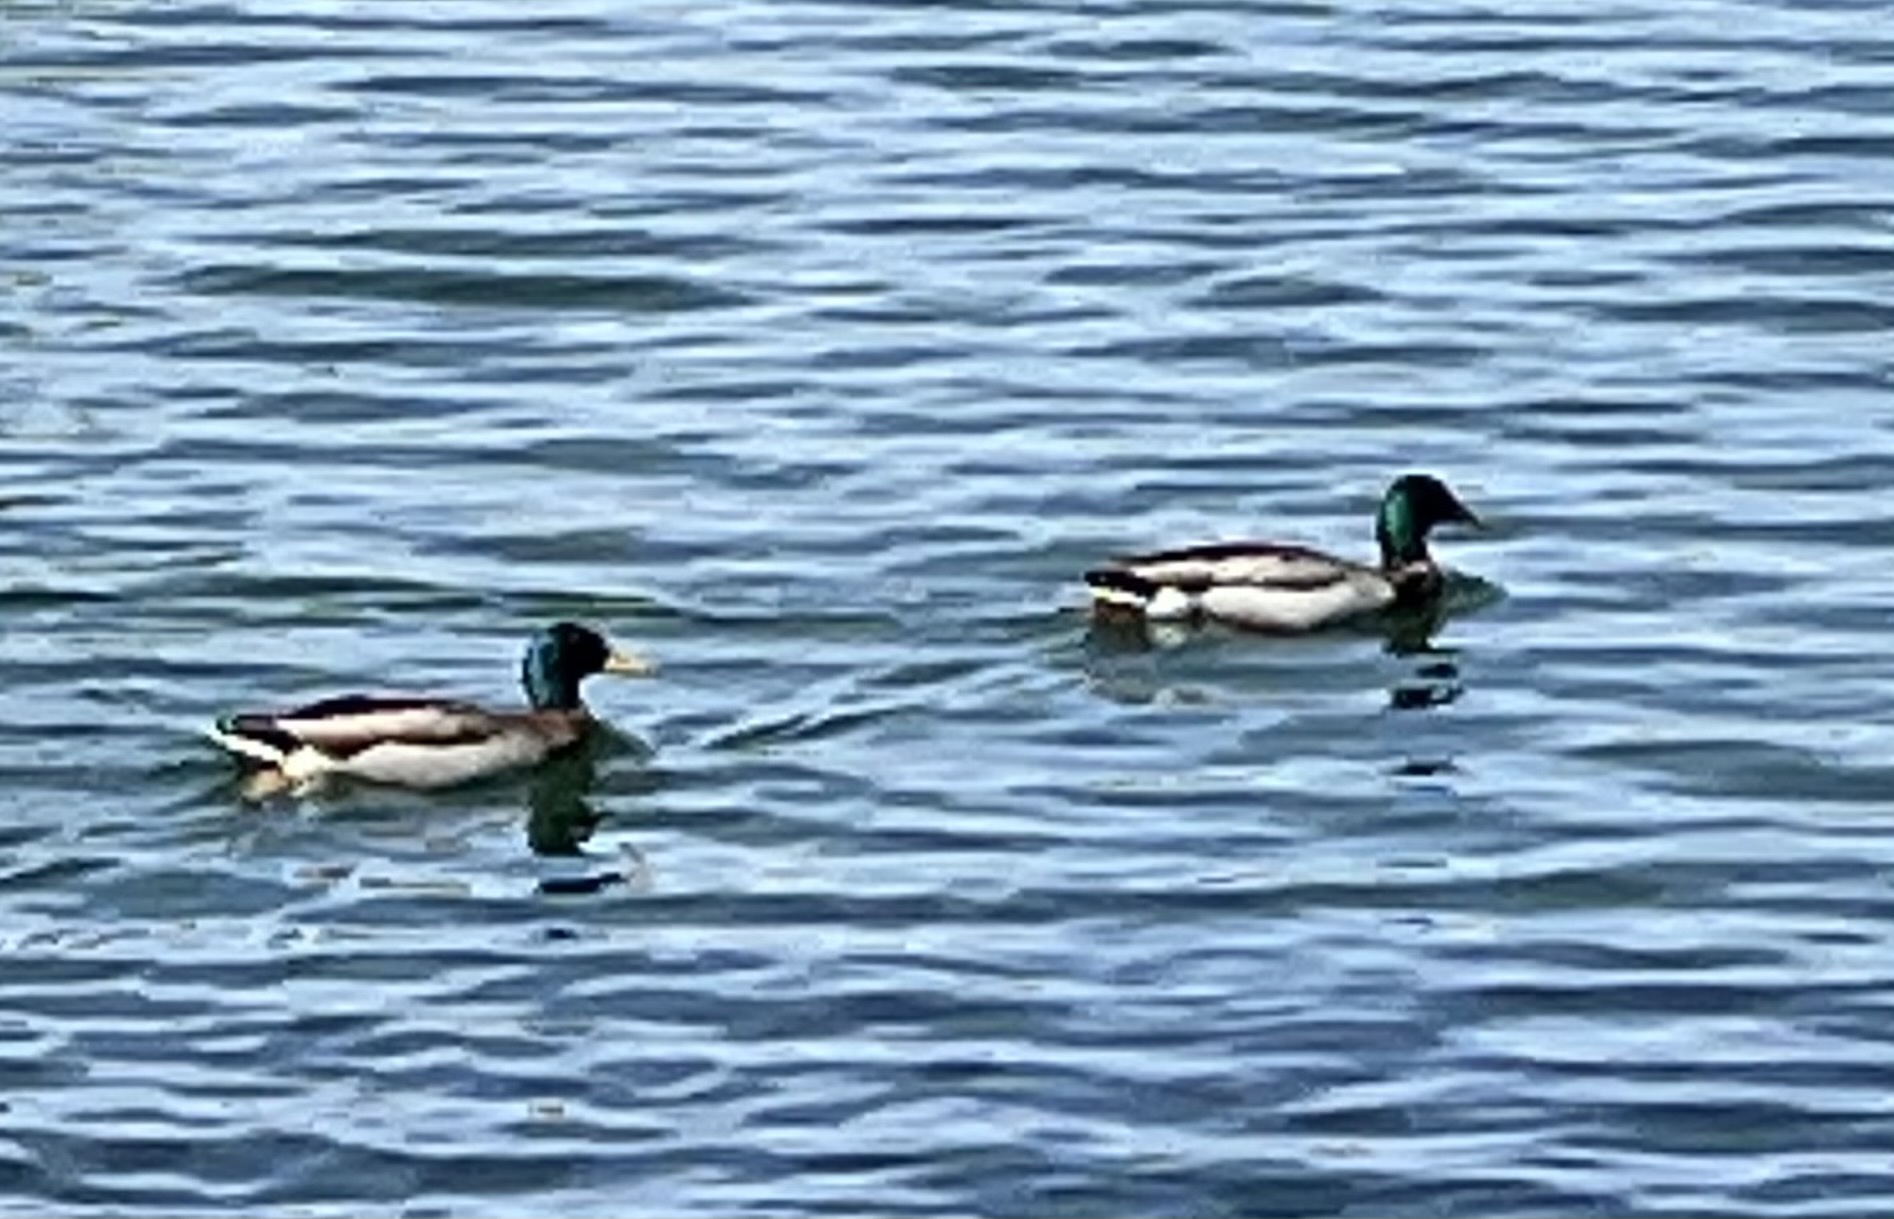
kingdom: Animalia
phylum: Chordata
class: Aves
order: Anseriformes
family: Anatidae
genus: Anas
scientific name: Anas platyrhynchos
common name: Mallard
